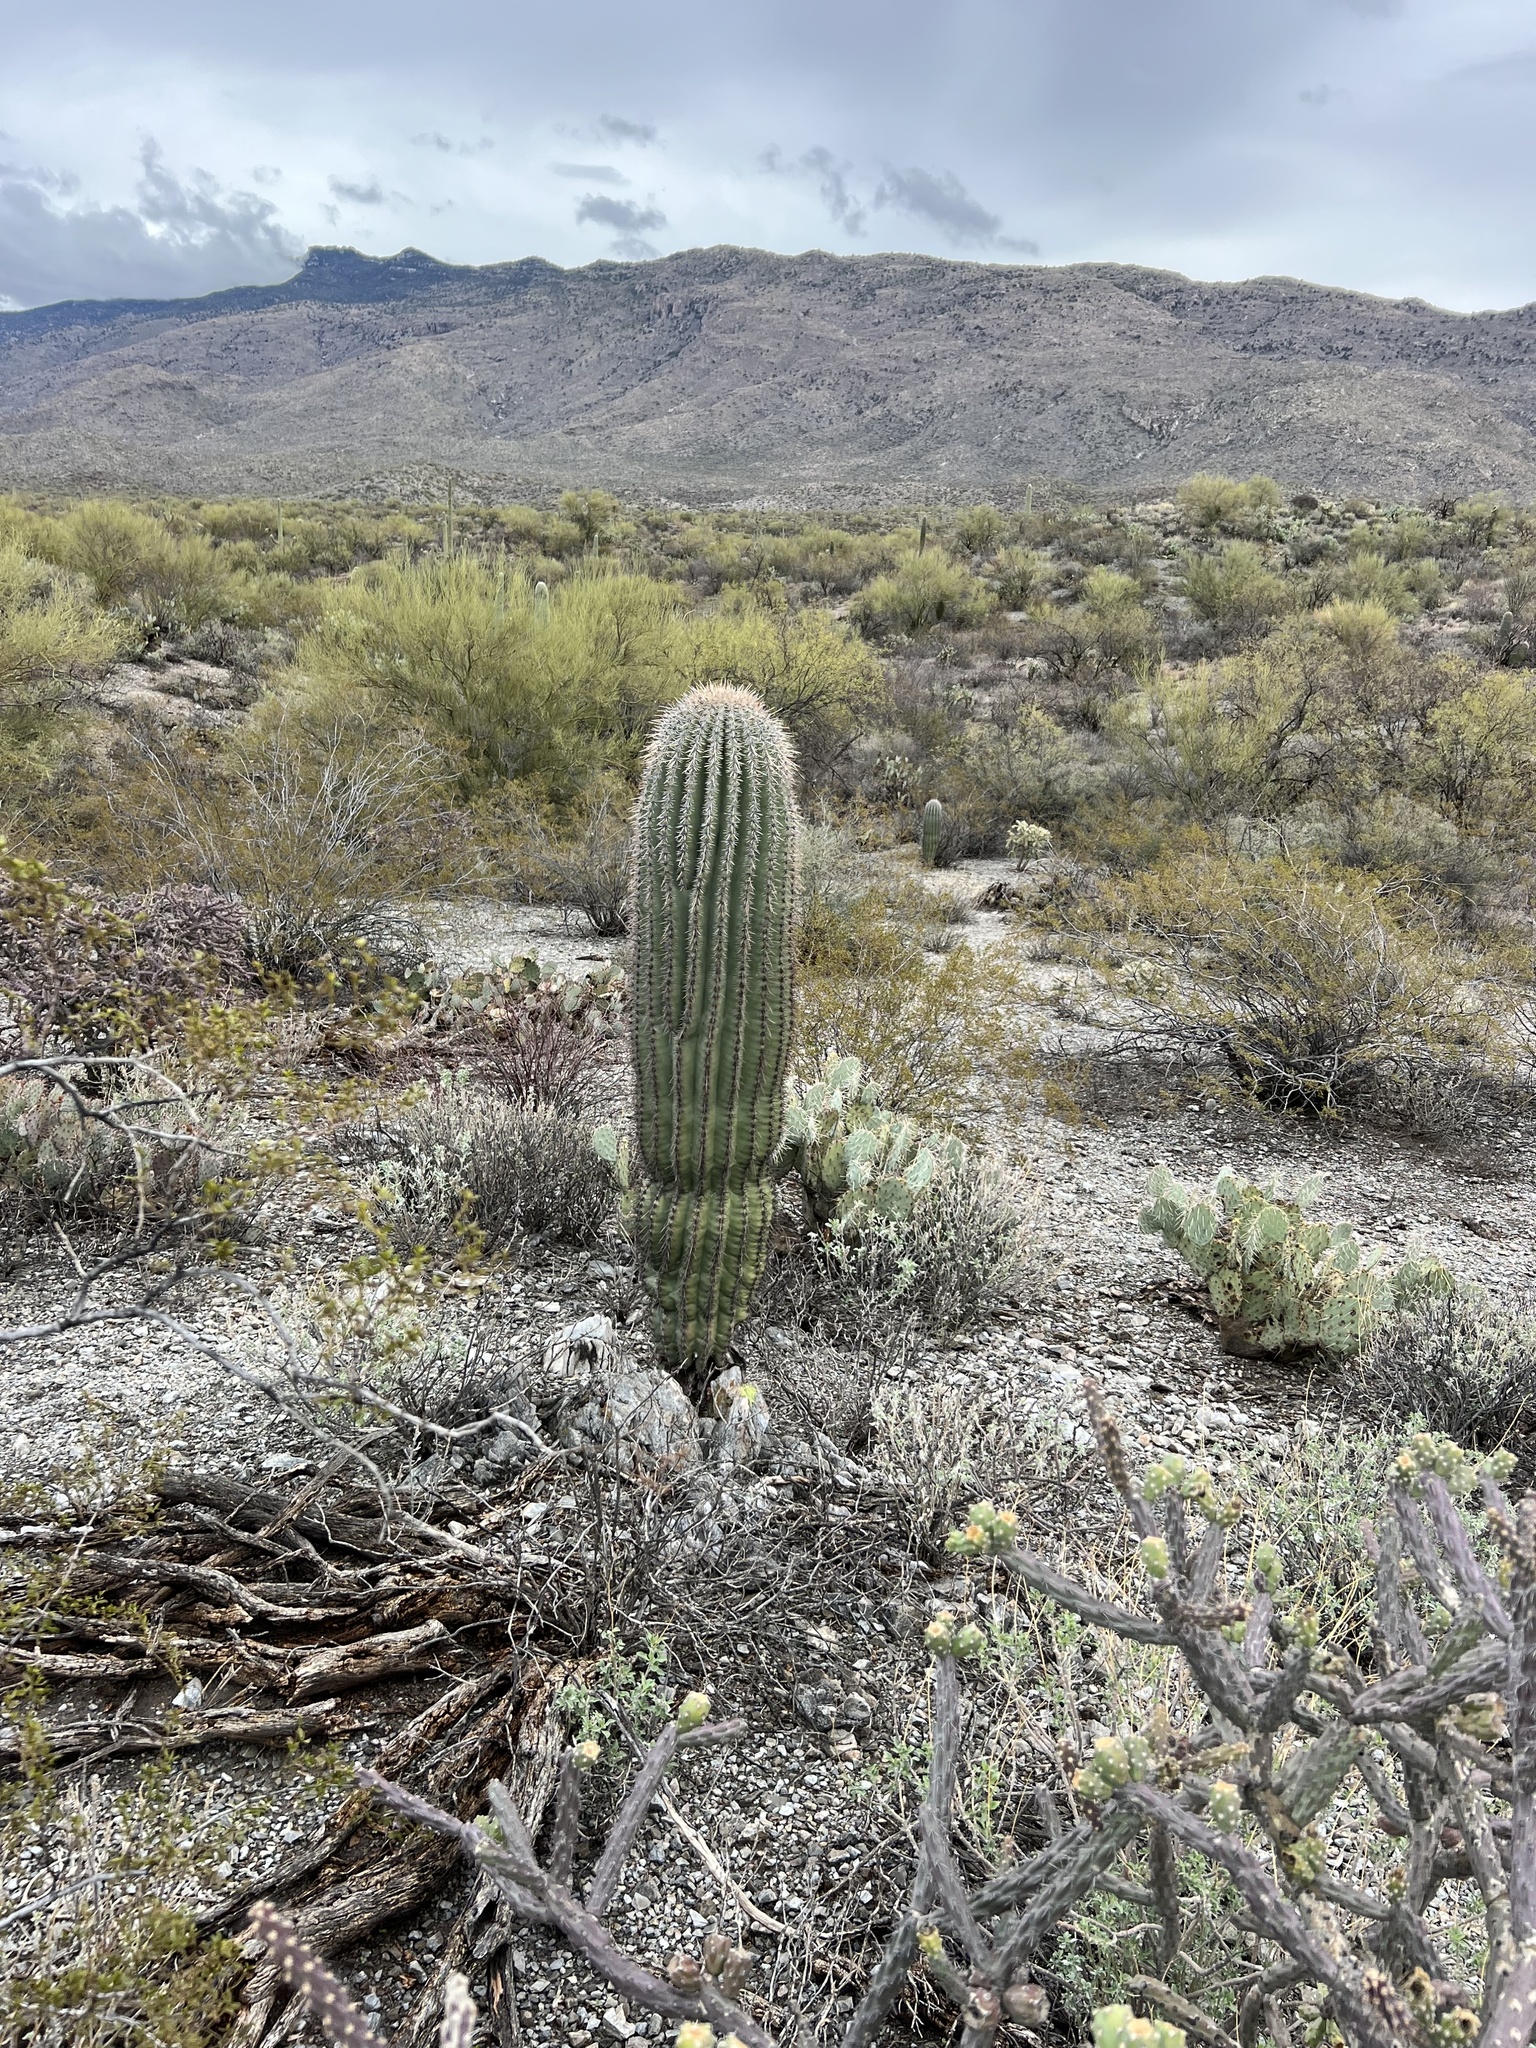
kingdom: Plantae
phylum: Tracheophyta
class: Magnoliopsida
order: Caryophyllales
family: Cactaceae
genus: Carnegiea
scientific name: Carnegiea gigantea
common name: Saguaro
